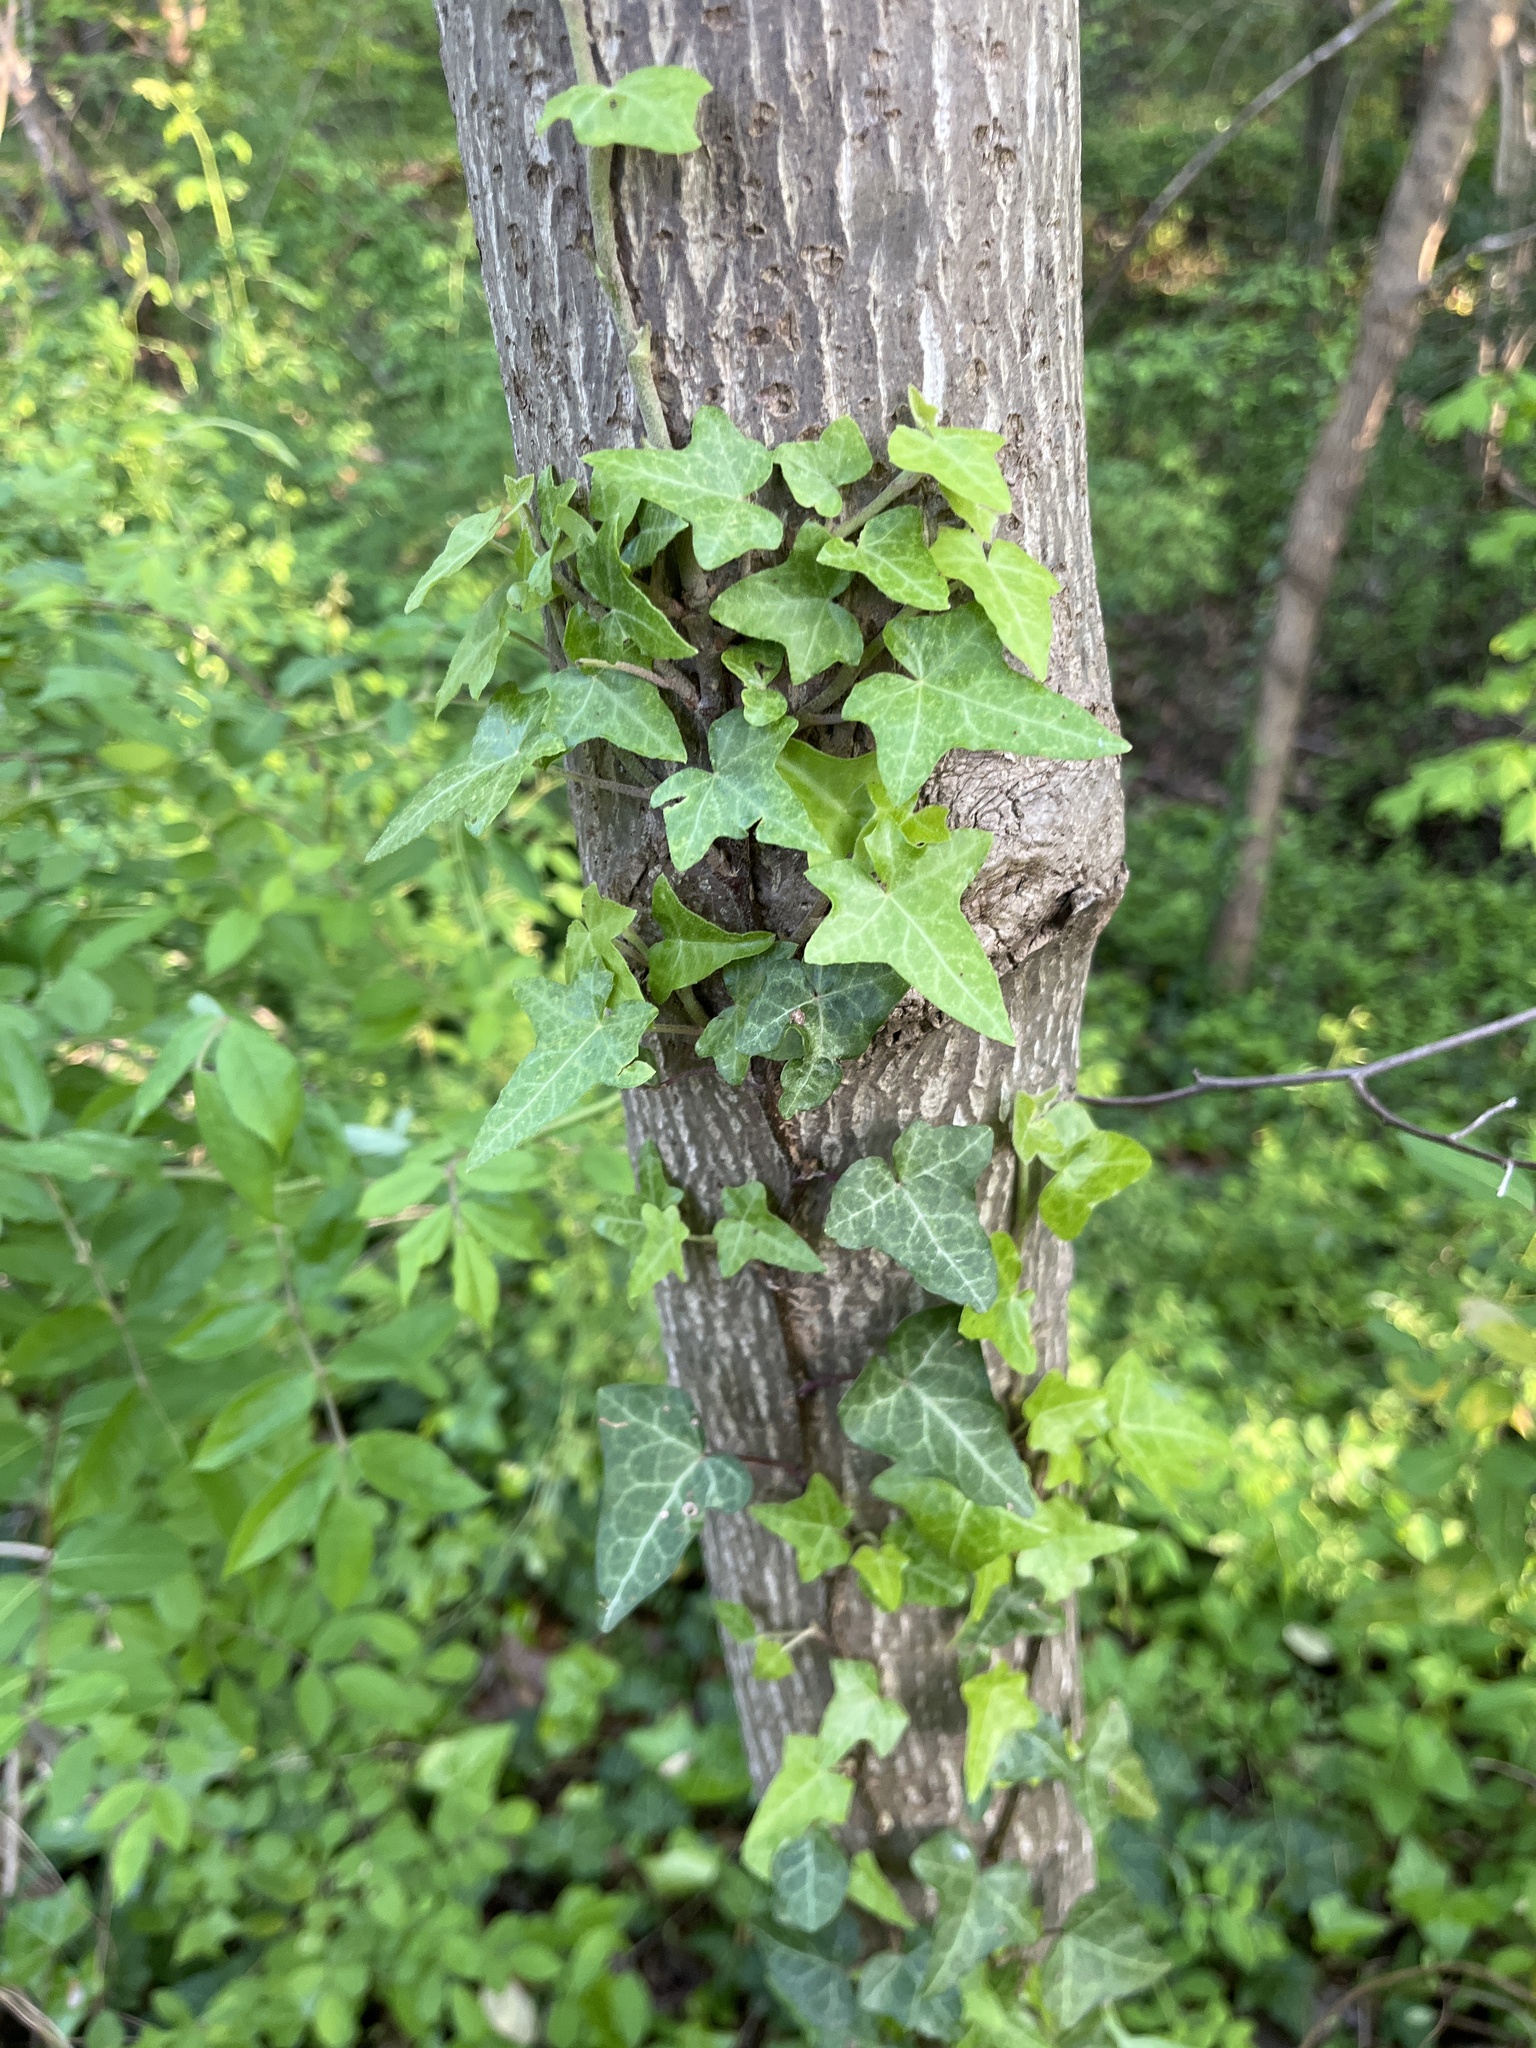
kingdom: Plantae
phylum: Tracheophyta
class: Magnoliopsida
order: Apiales
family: Araliaceae
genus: Hedera
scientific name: Hedera helix
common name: Ivy
